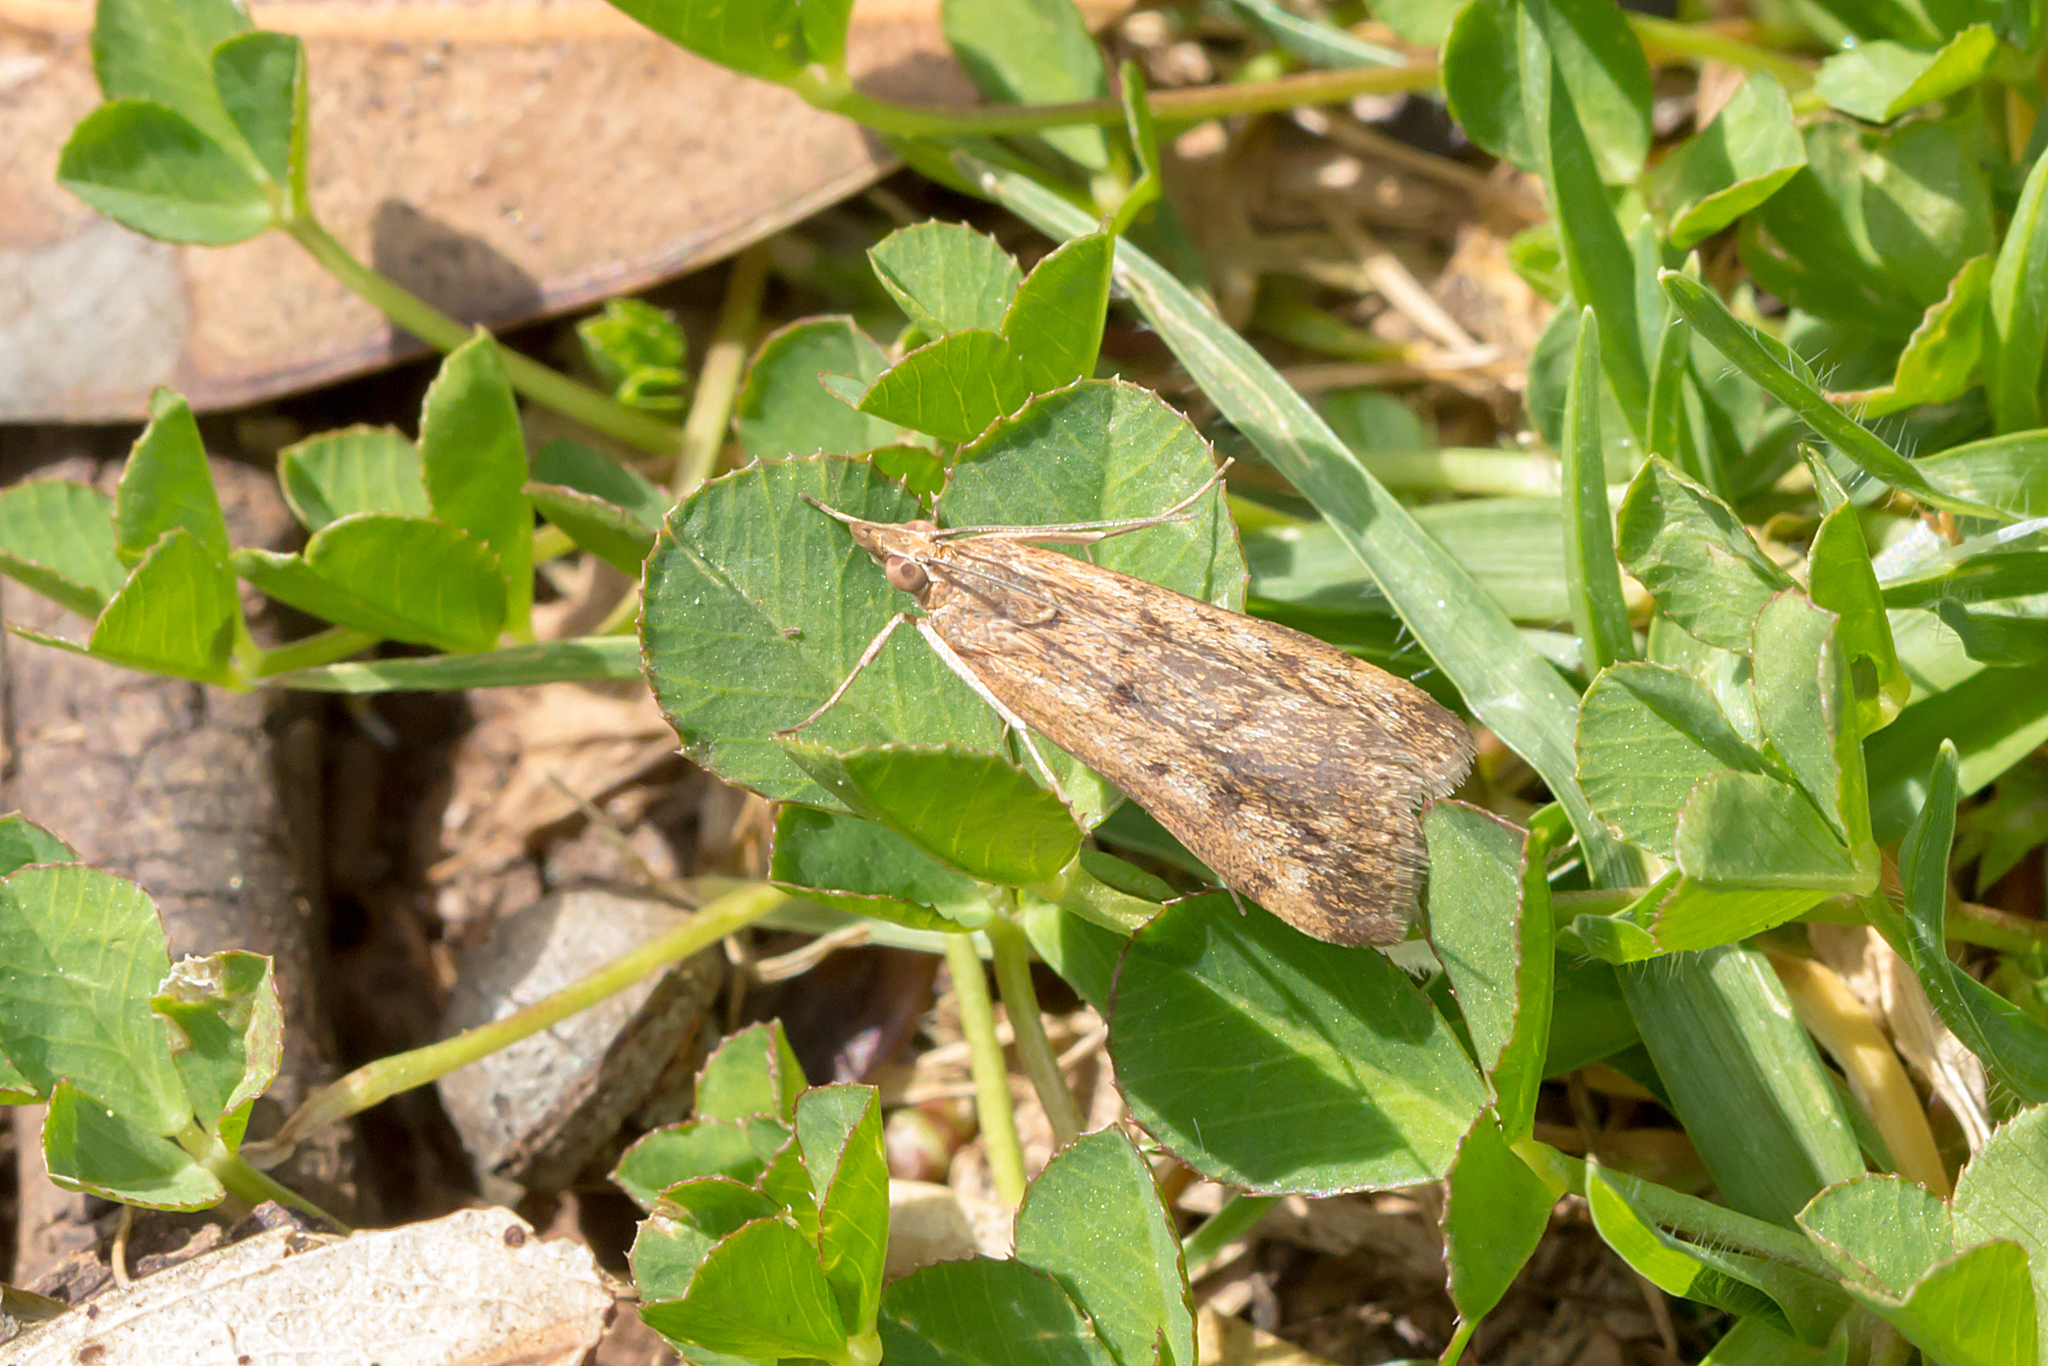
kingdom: Animalia
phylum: Arthropoda
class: Insecta
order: Lepidoptera
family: Crambidae
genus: Achyra
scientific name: Achyra affinitalis
